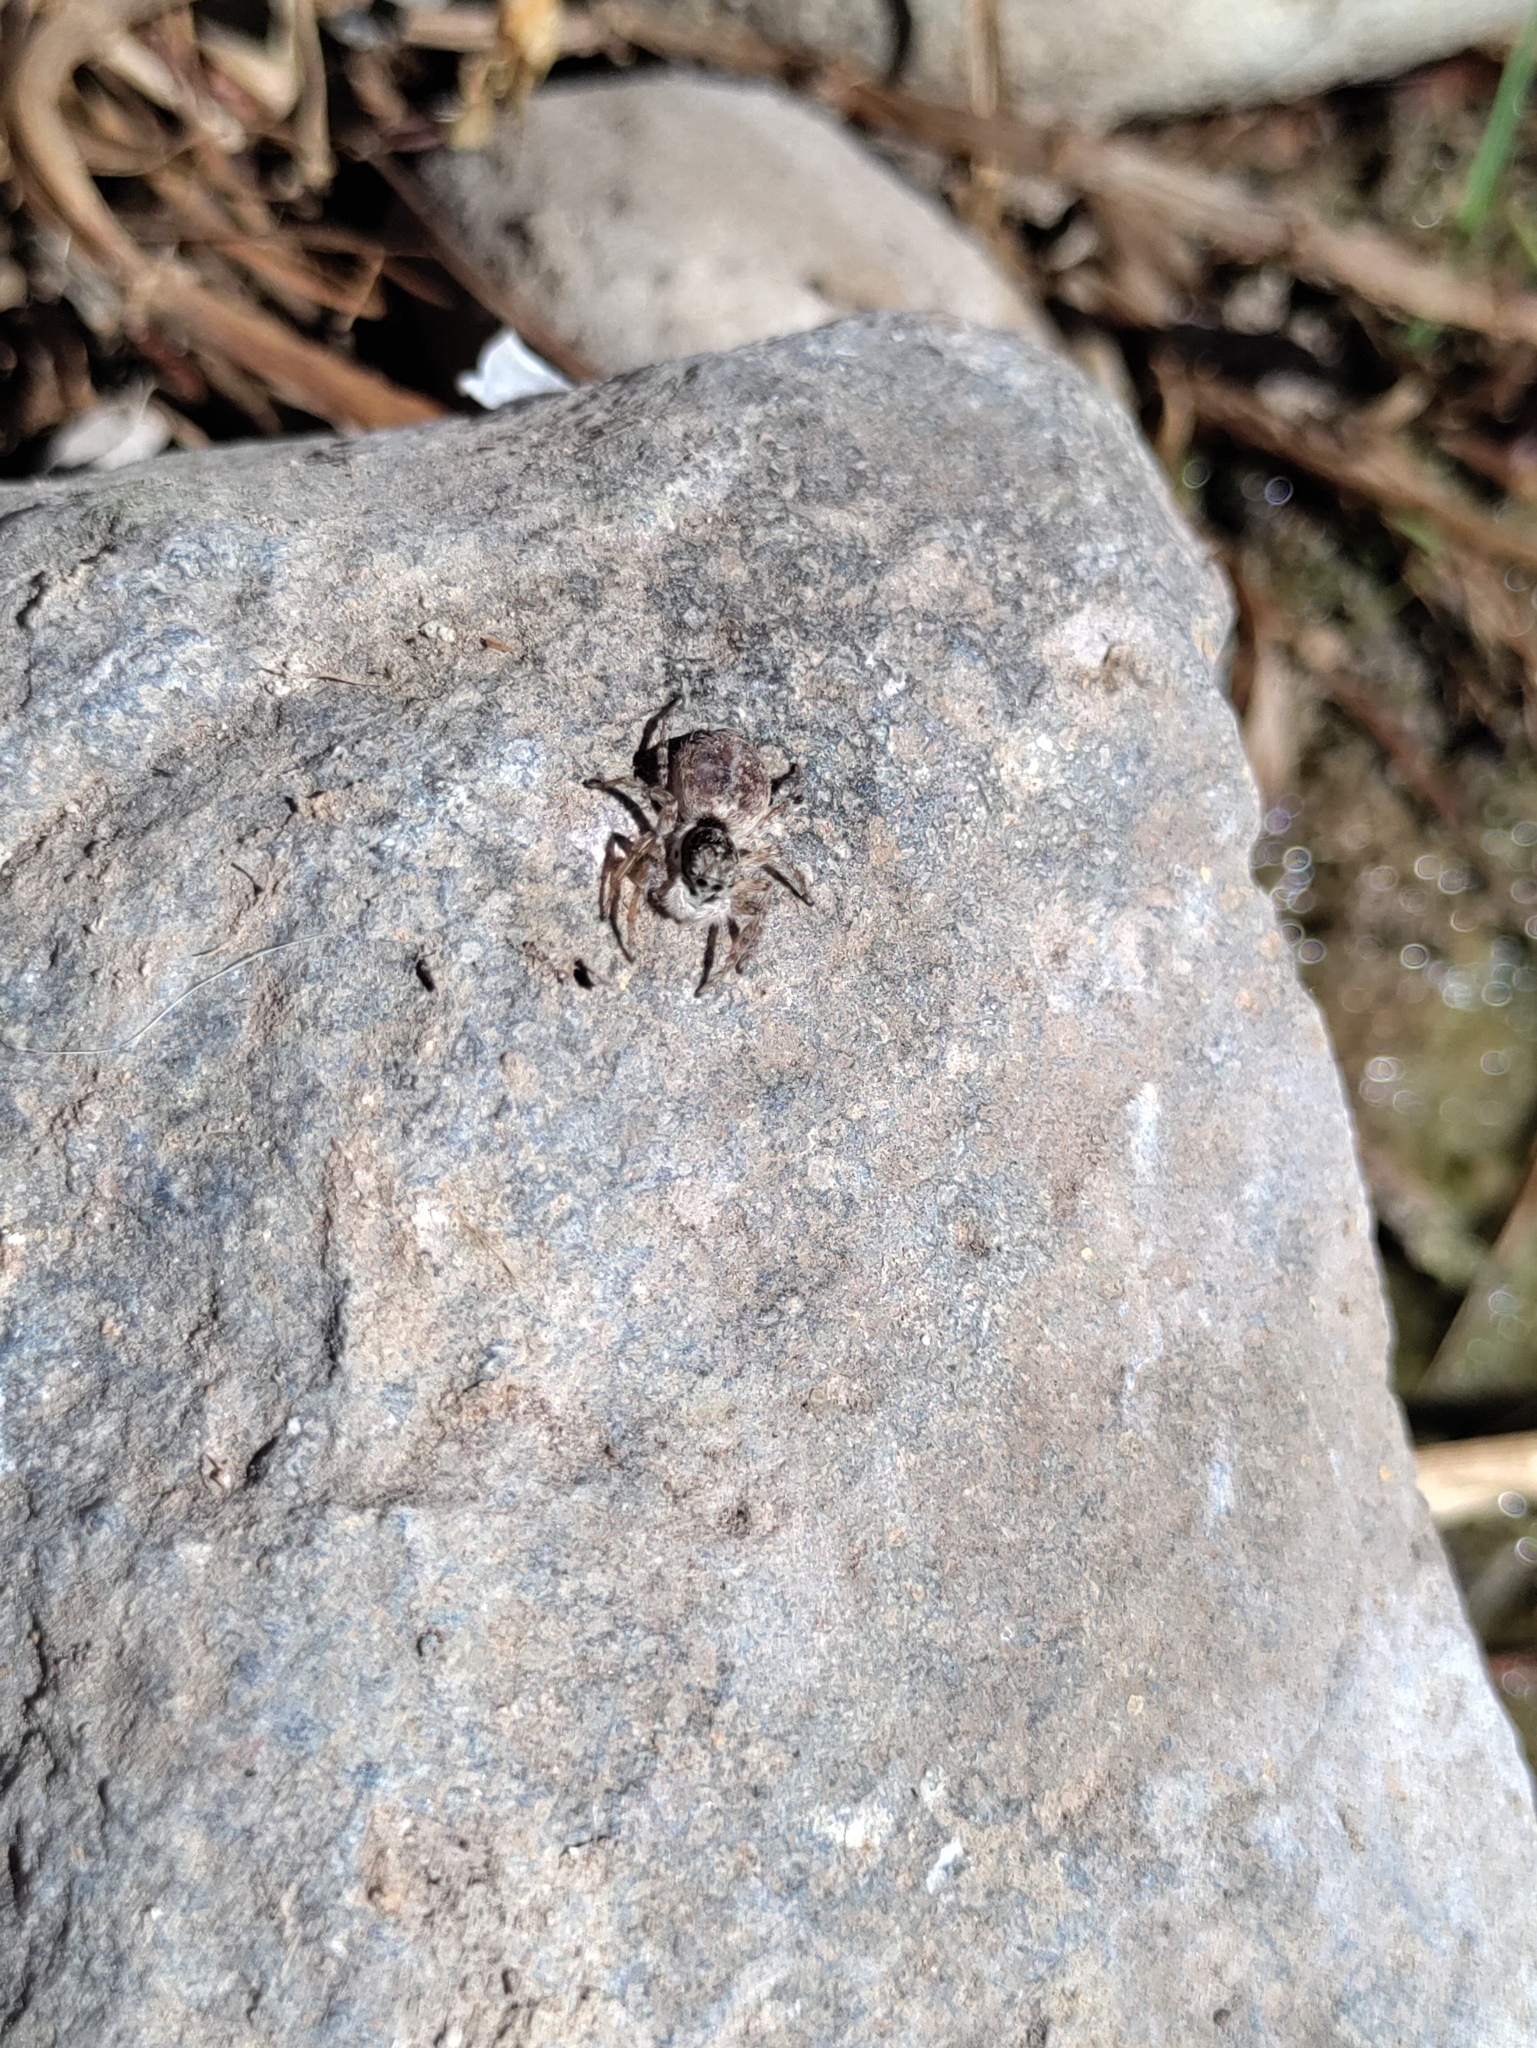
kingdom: Animalia
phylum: Arthropoda
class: Arachnida
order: Araneae
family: Salticidae
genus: Menemerus
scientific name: Menemerus semilimbatus
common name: Jumping spider
